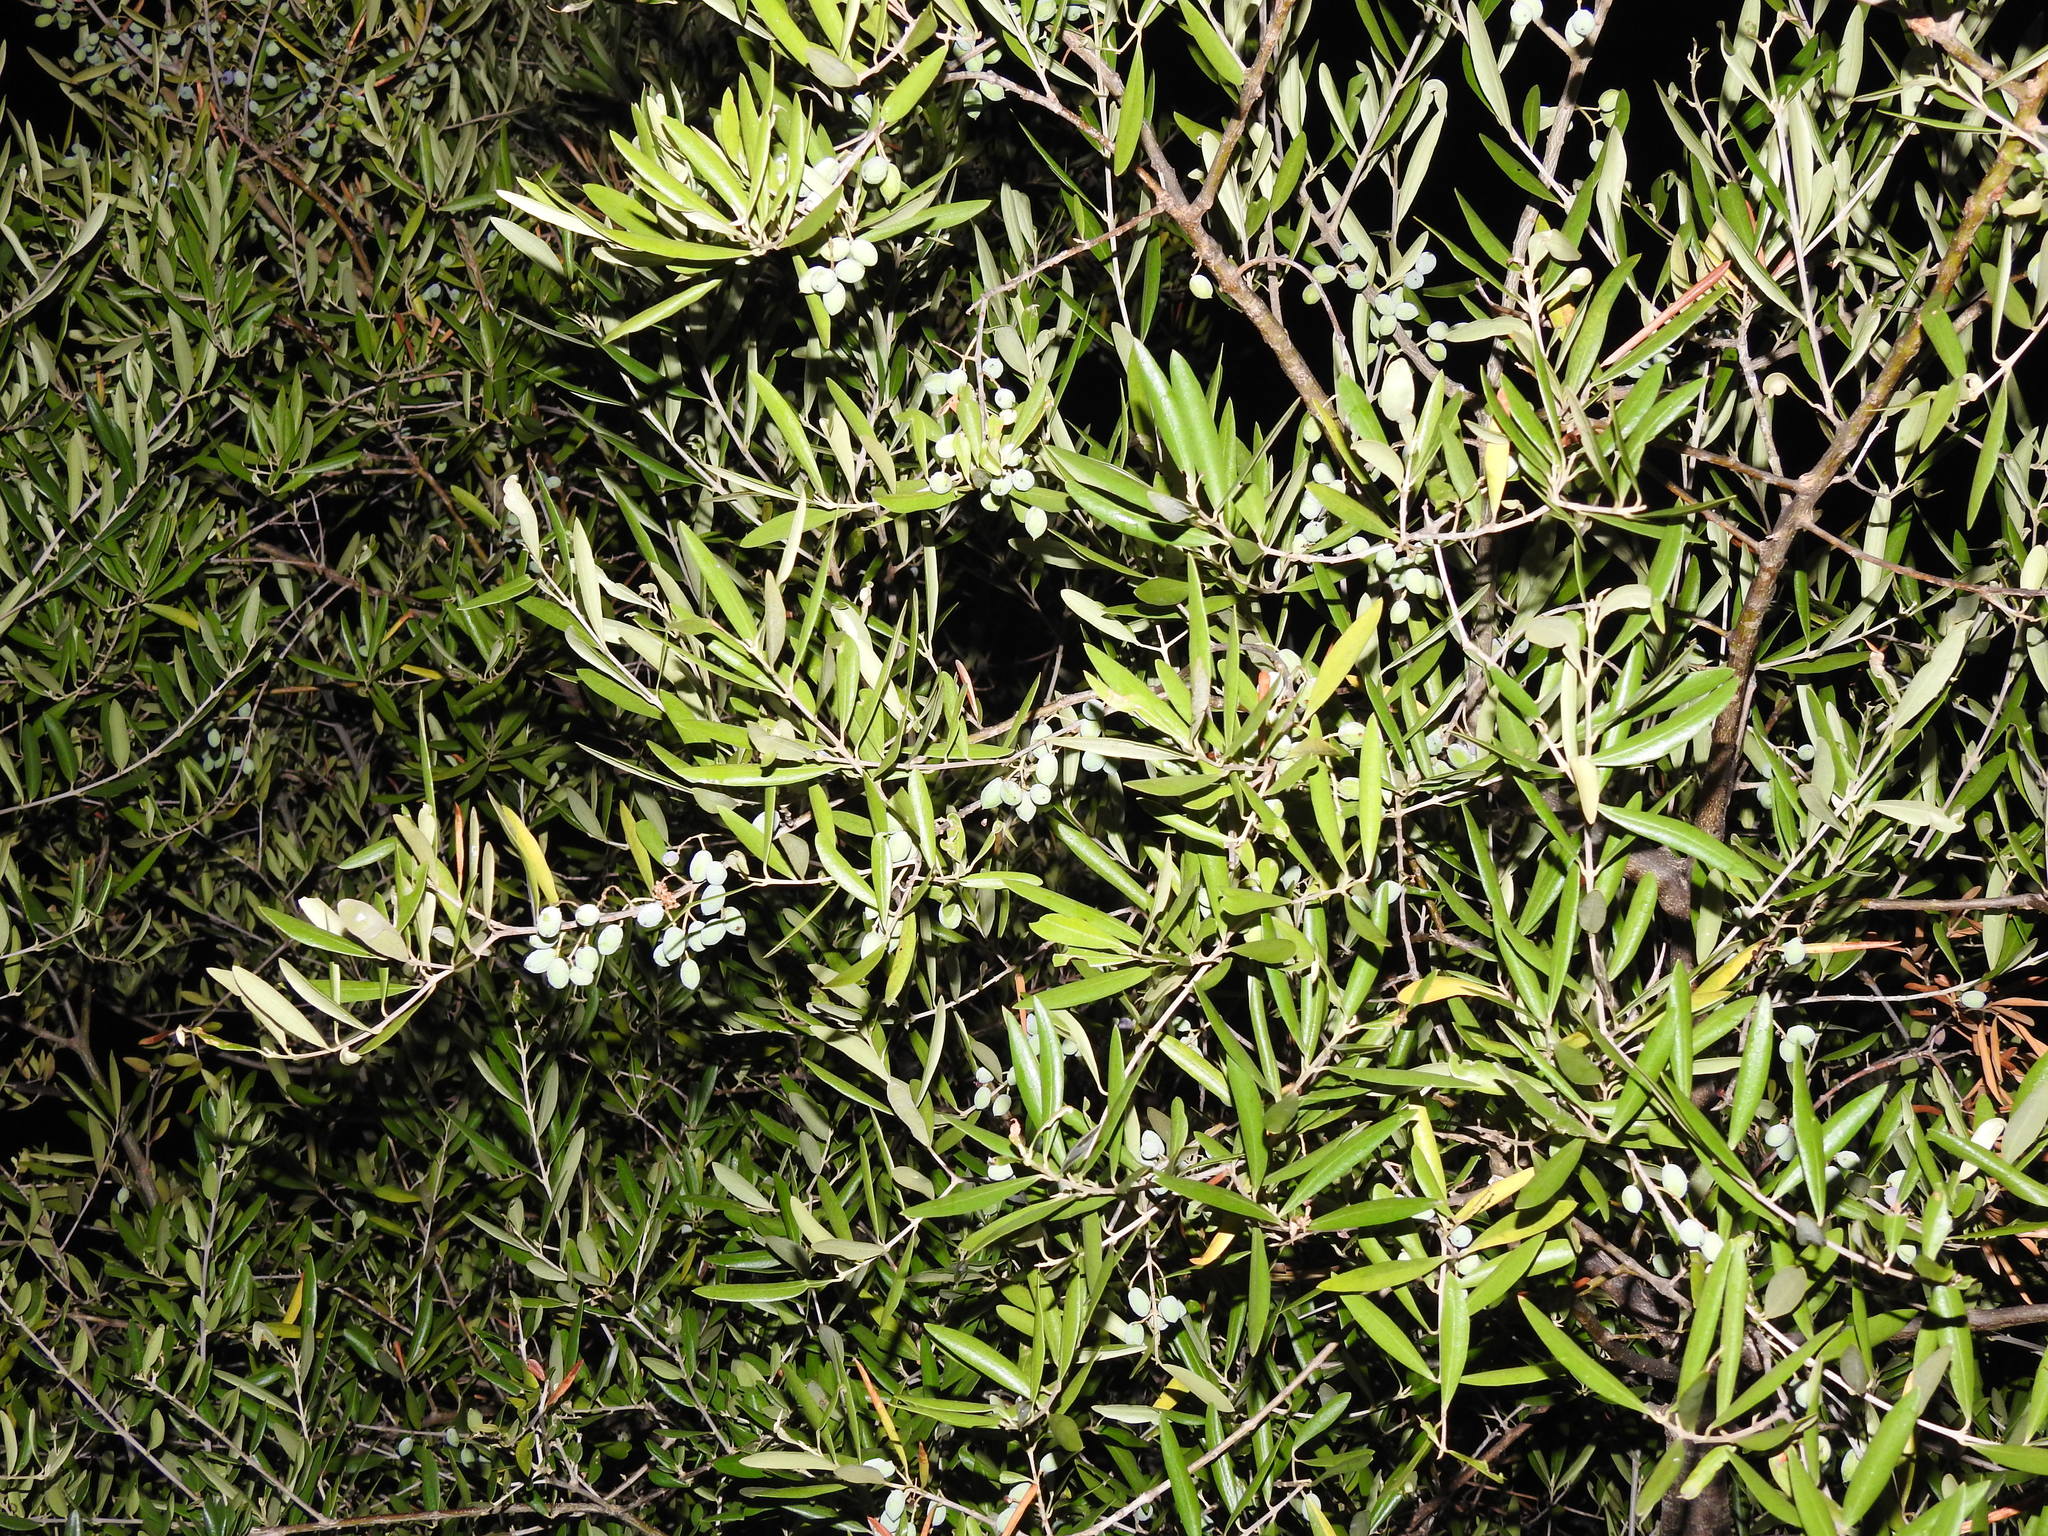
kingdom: Plantae
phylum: Tracheophyta
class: Magnoliopsida
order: Lamiales
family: Oleaceae
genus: Olea
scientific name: Olea europaea
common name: Olive
